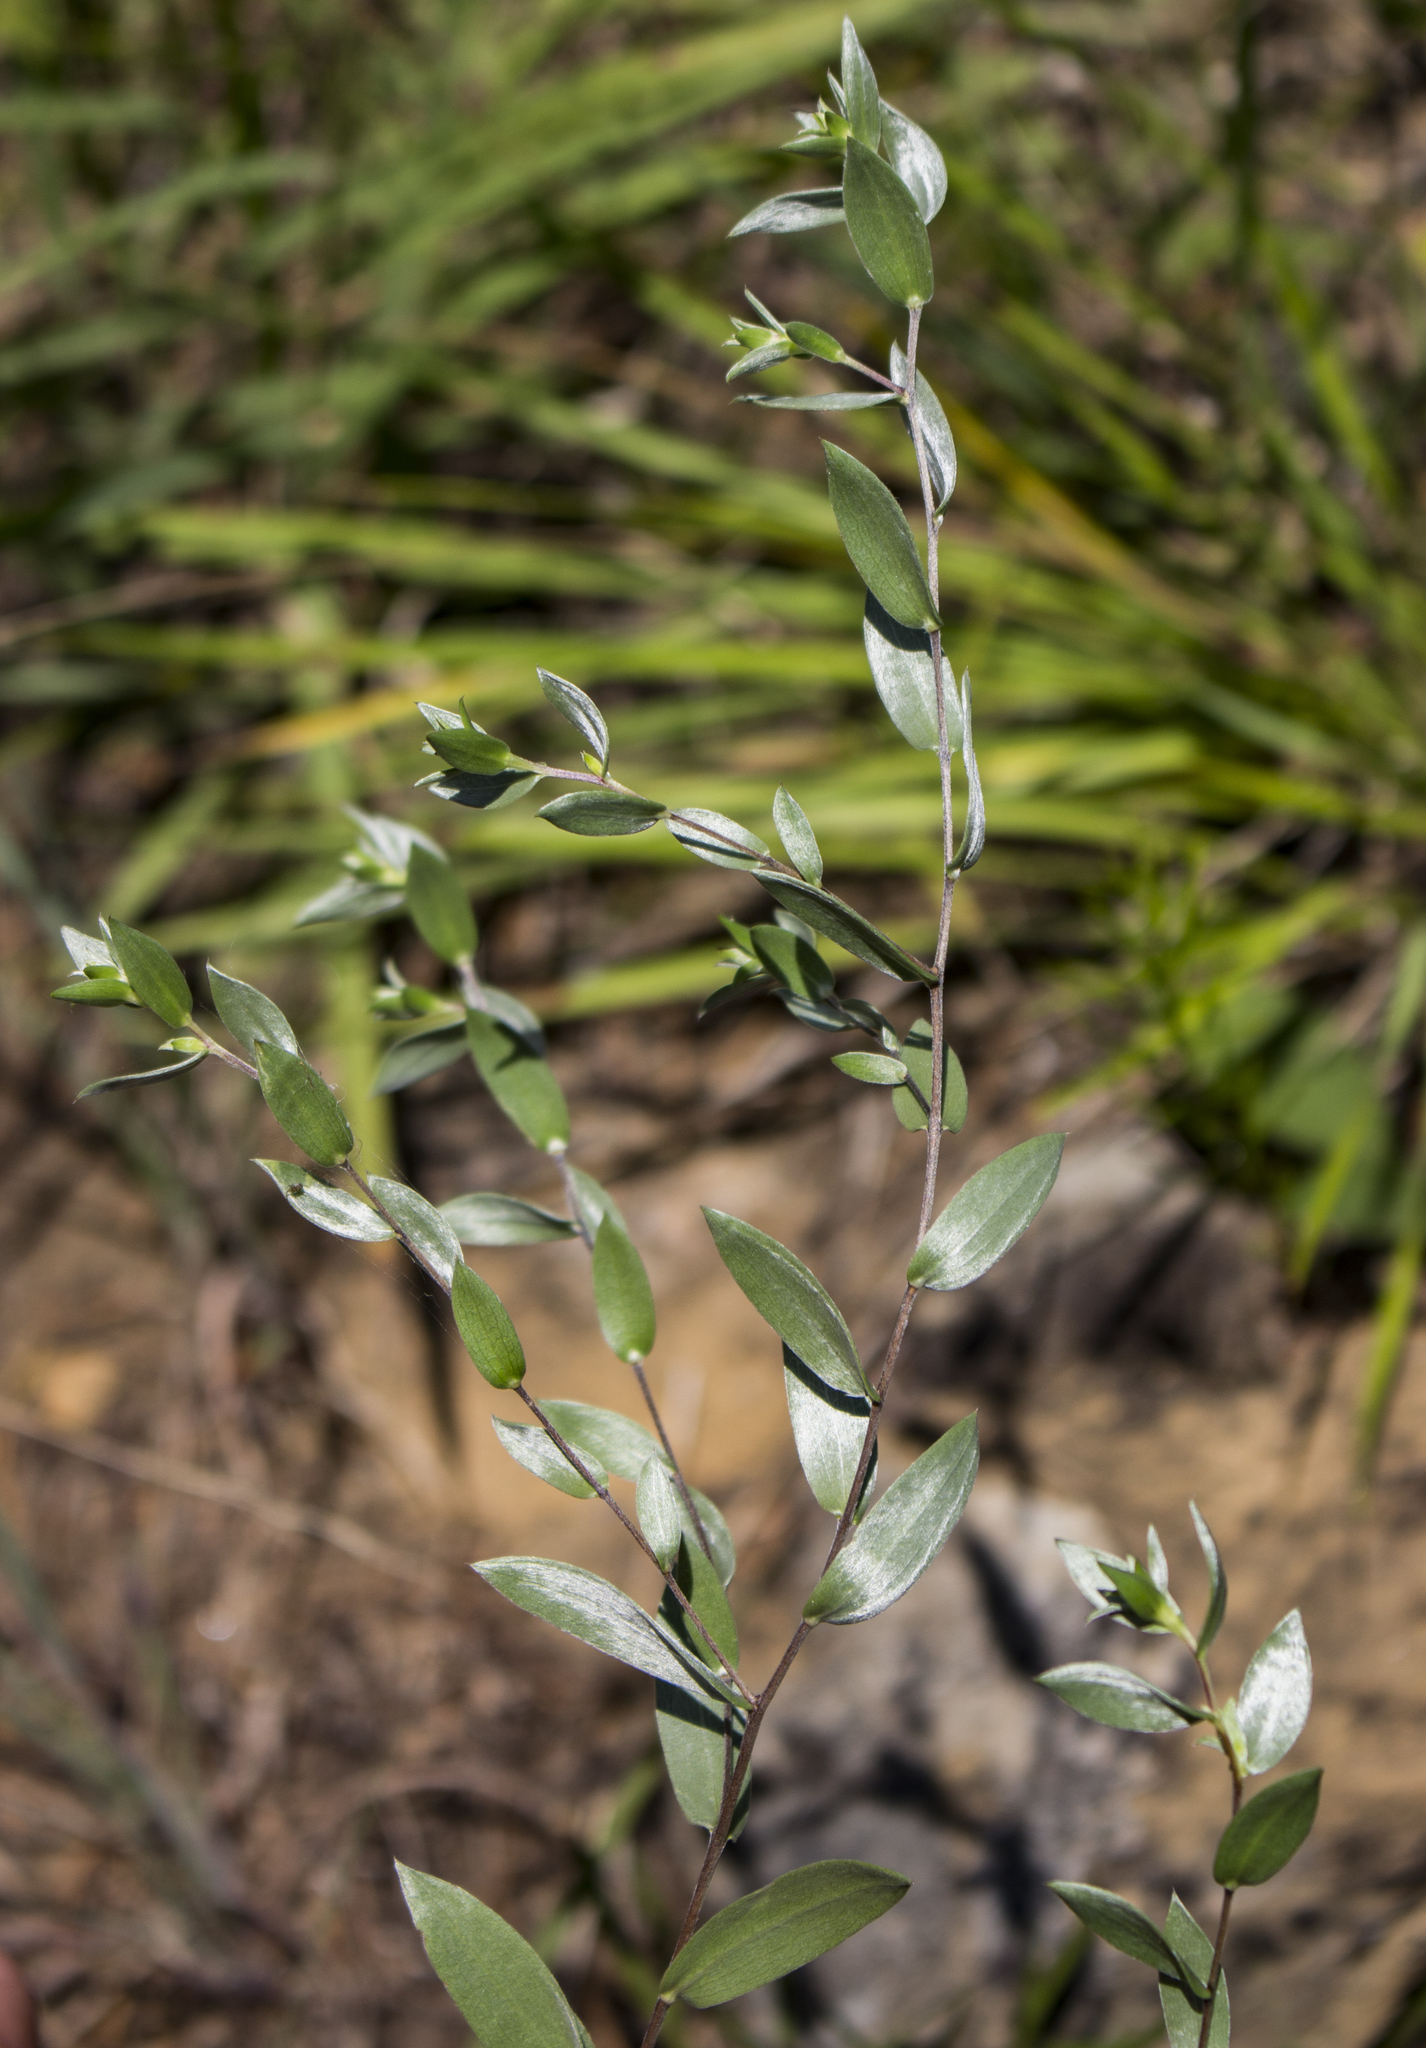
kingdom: Plantae
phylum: Tracheophyta
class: Magnoliopsida
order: Asterales
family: Asteraceae
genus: Symphyotrichum
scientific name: Symphyotrichum sericeum
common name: Silky aster
